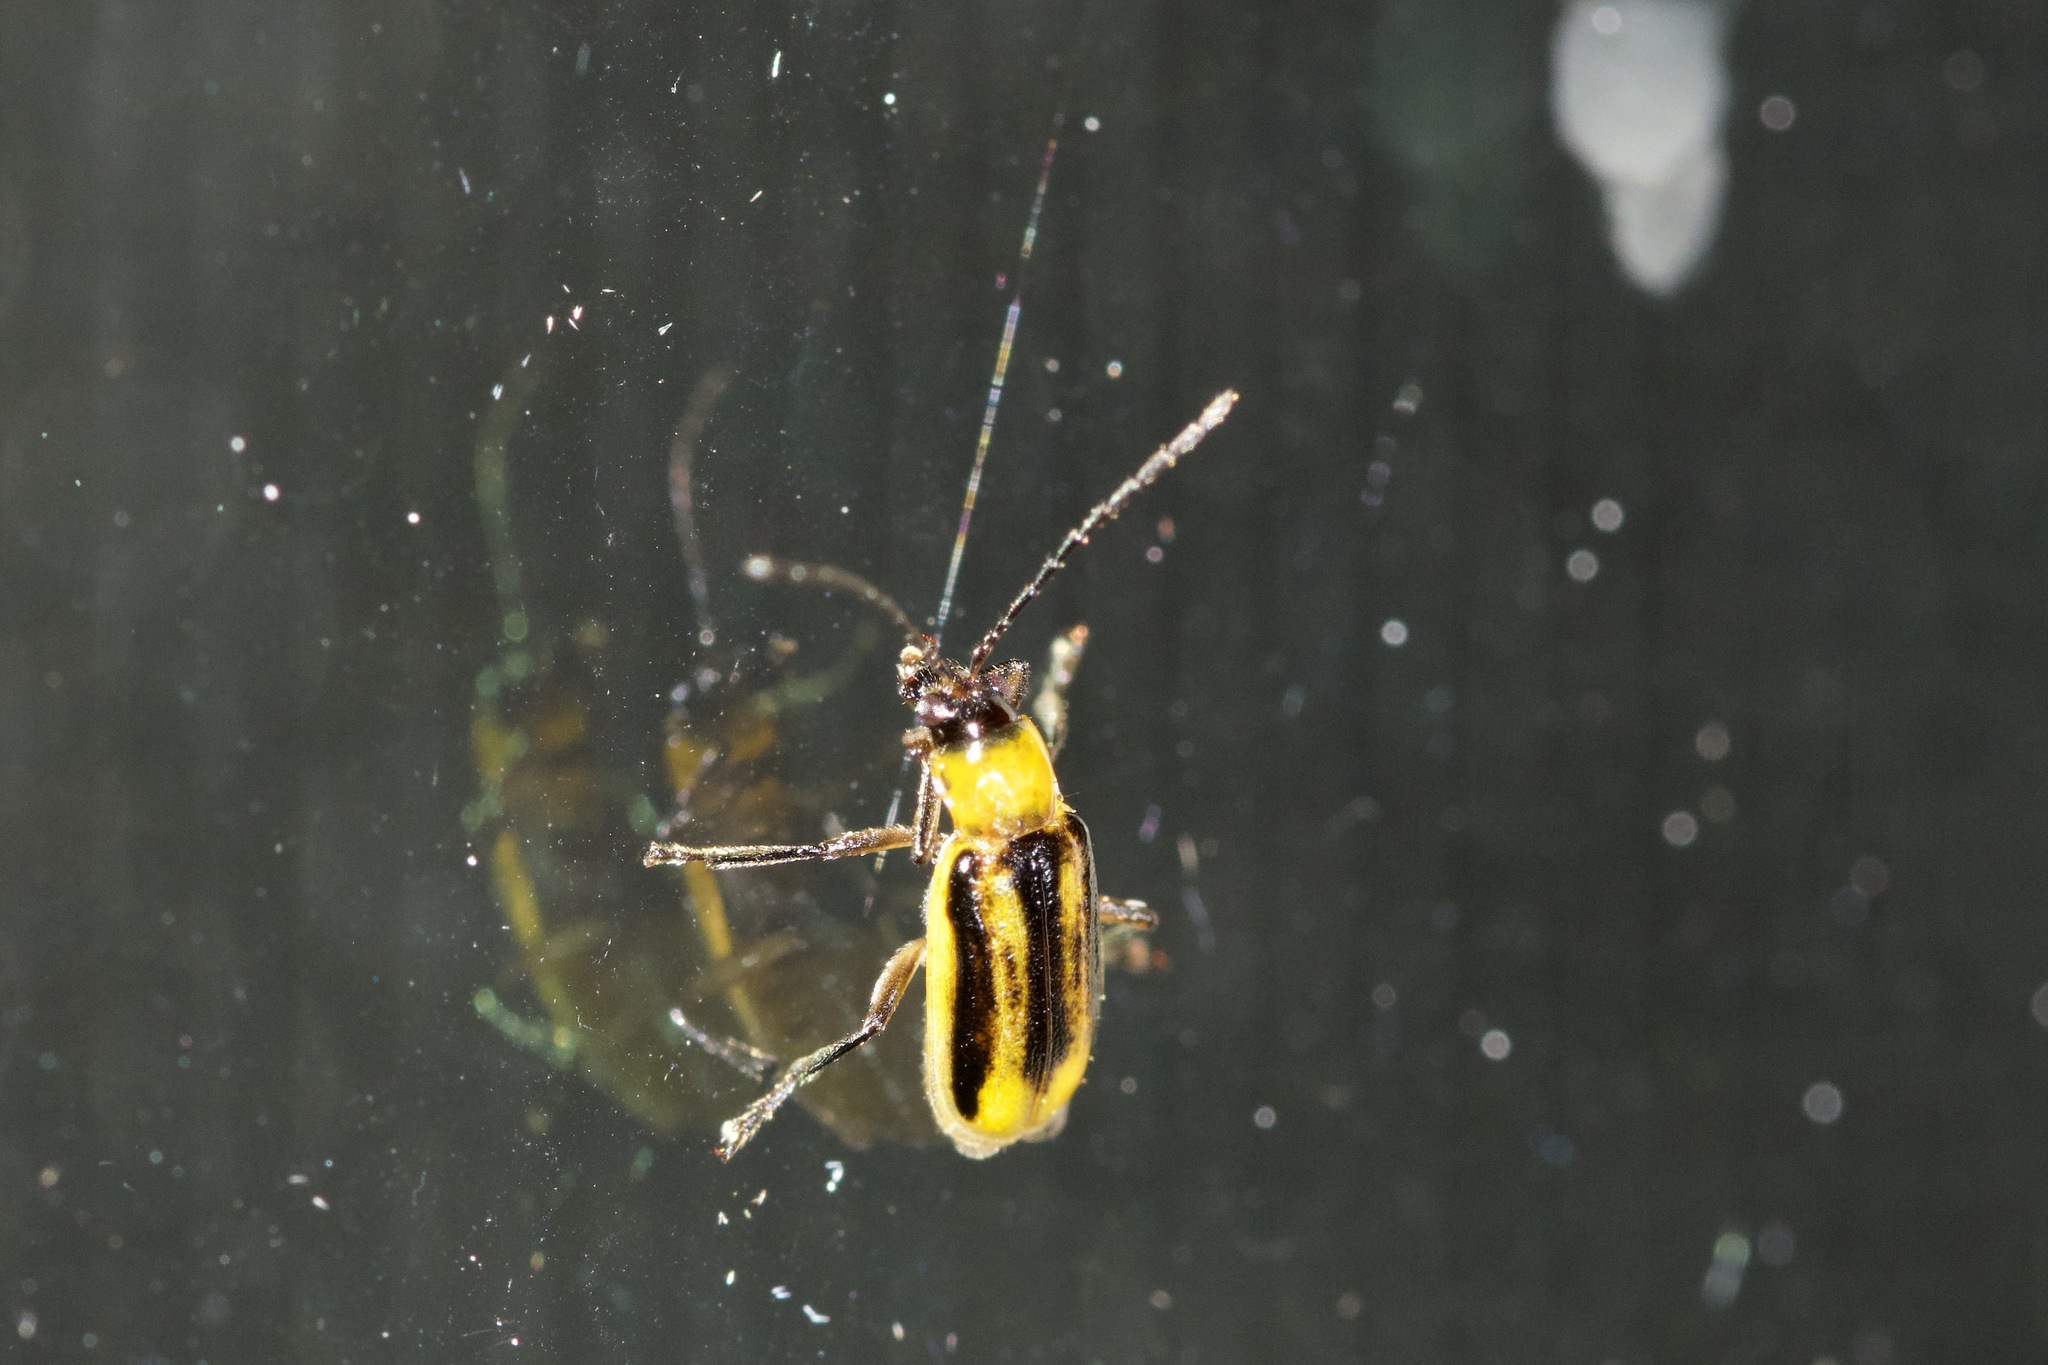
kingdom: Animalia
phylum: Arthropoda
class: Insecta
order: Coleoptera
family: Chrysomelidae
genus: Acalymma
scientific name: Acalymma vittatum
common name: Striped cucumber beetle
